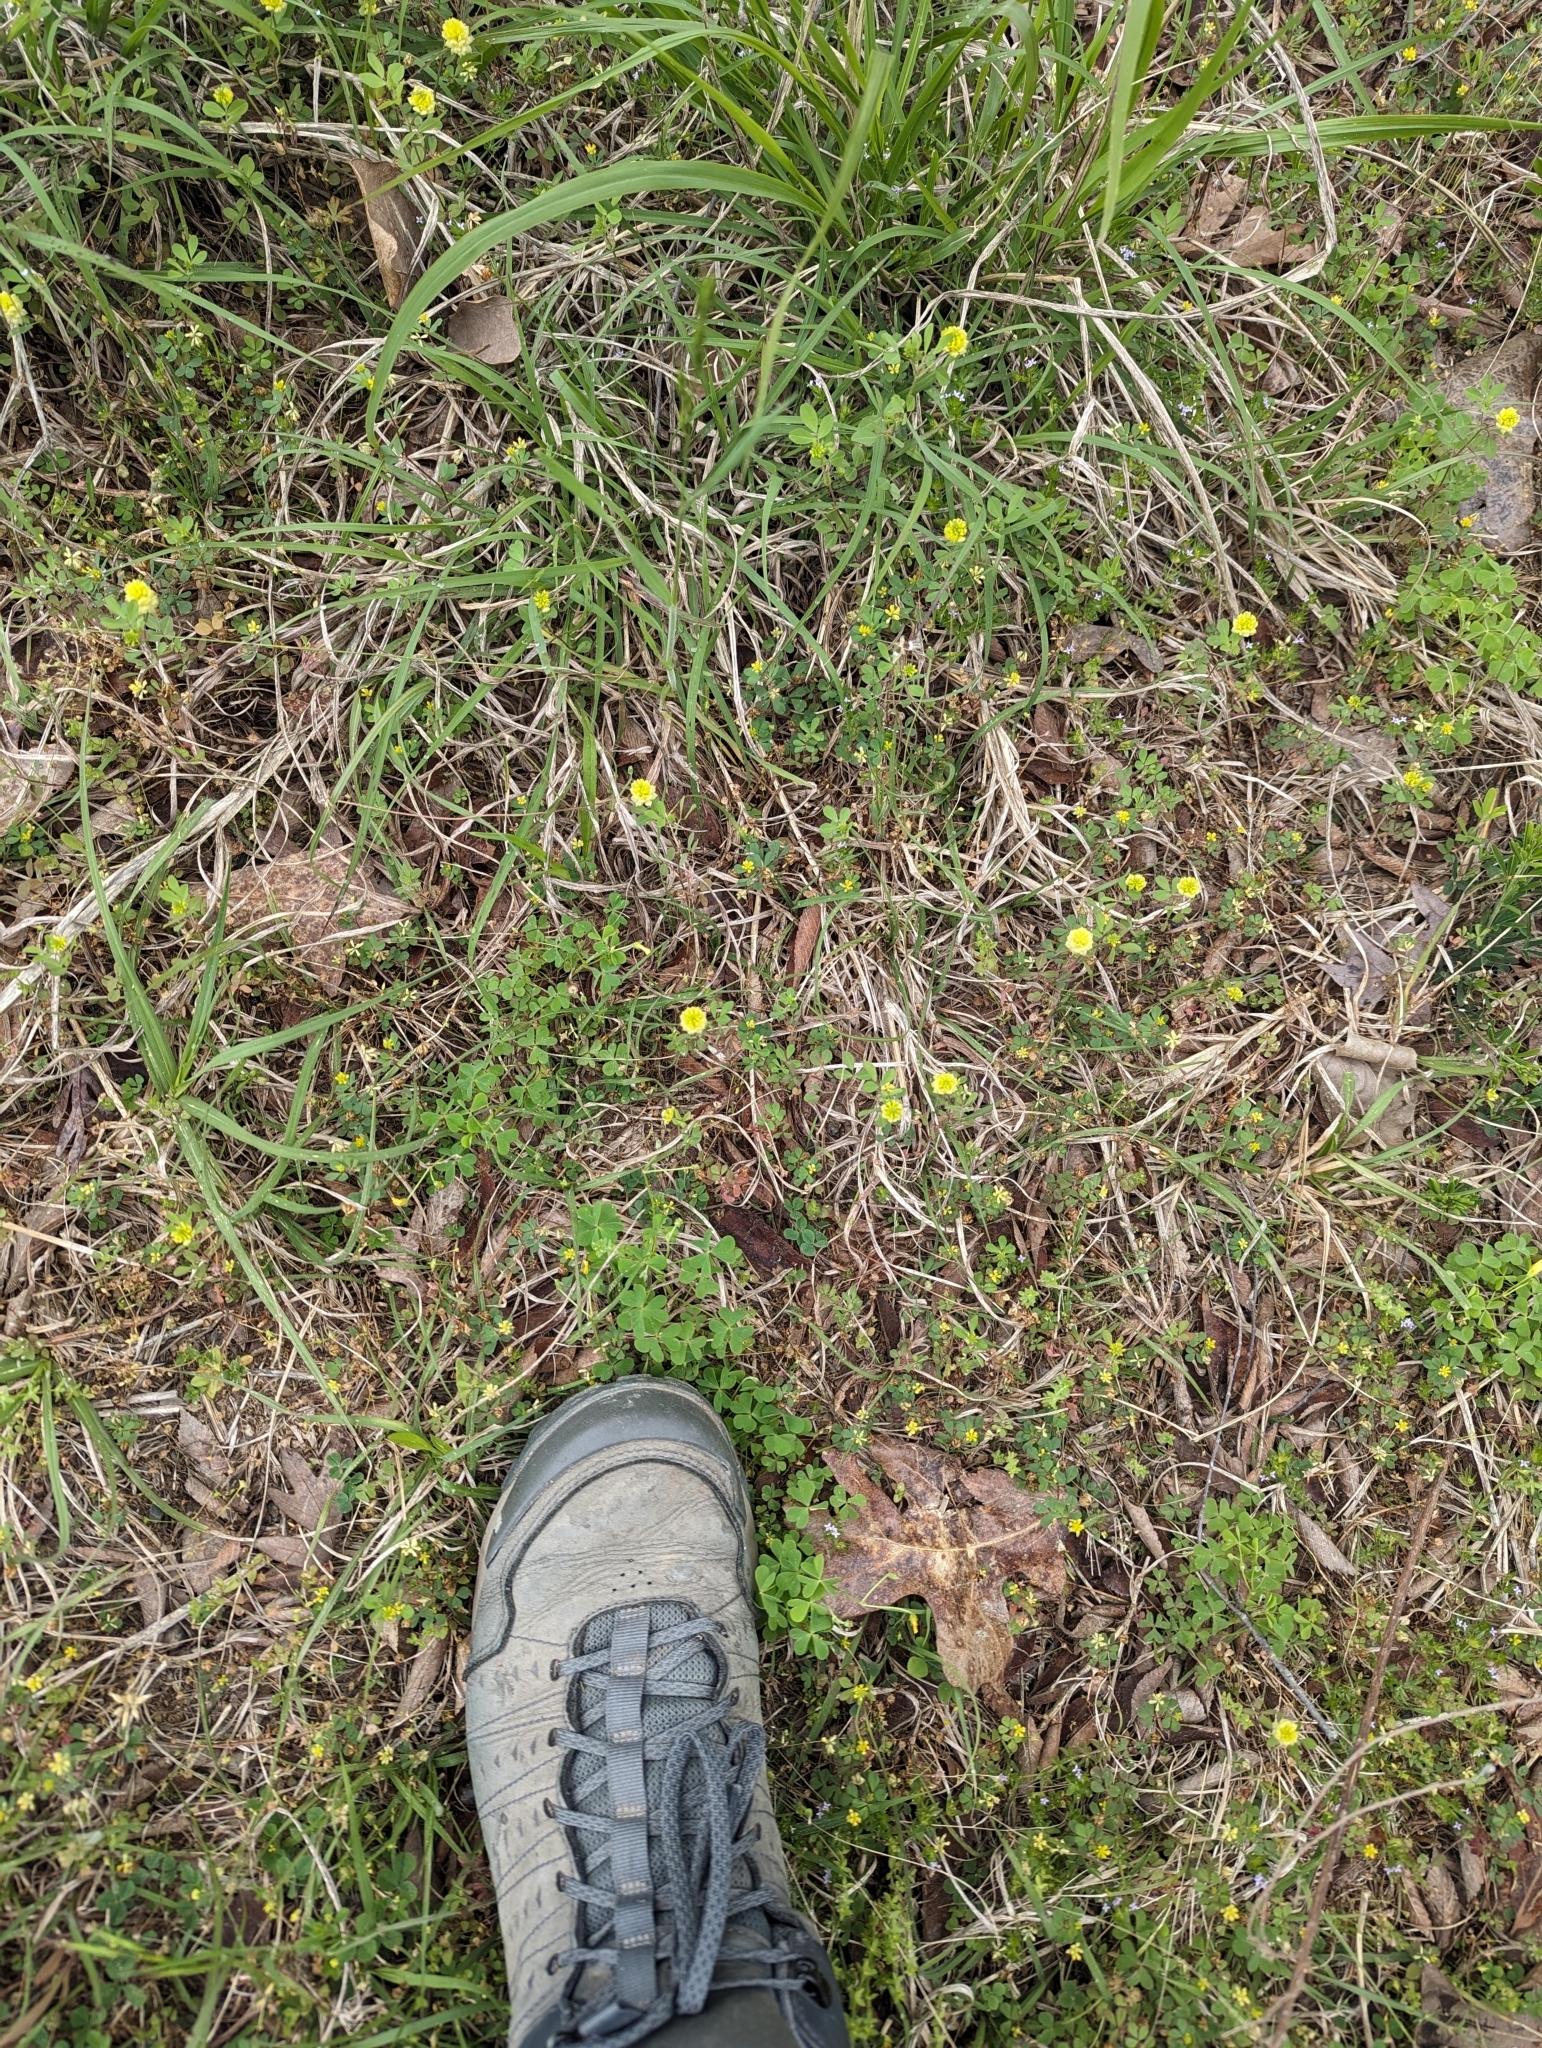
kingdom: Plantae
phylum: Tracheophyta
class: Magnoliopsida
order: Fabales
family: Fabaceae
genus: Trifolium
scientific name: Trifolium campestre
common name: Field clover
